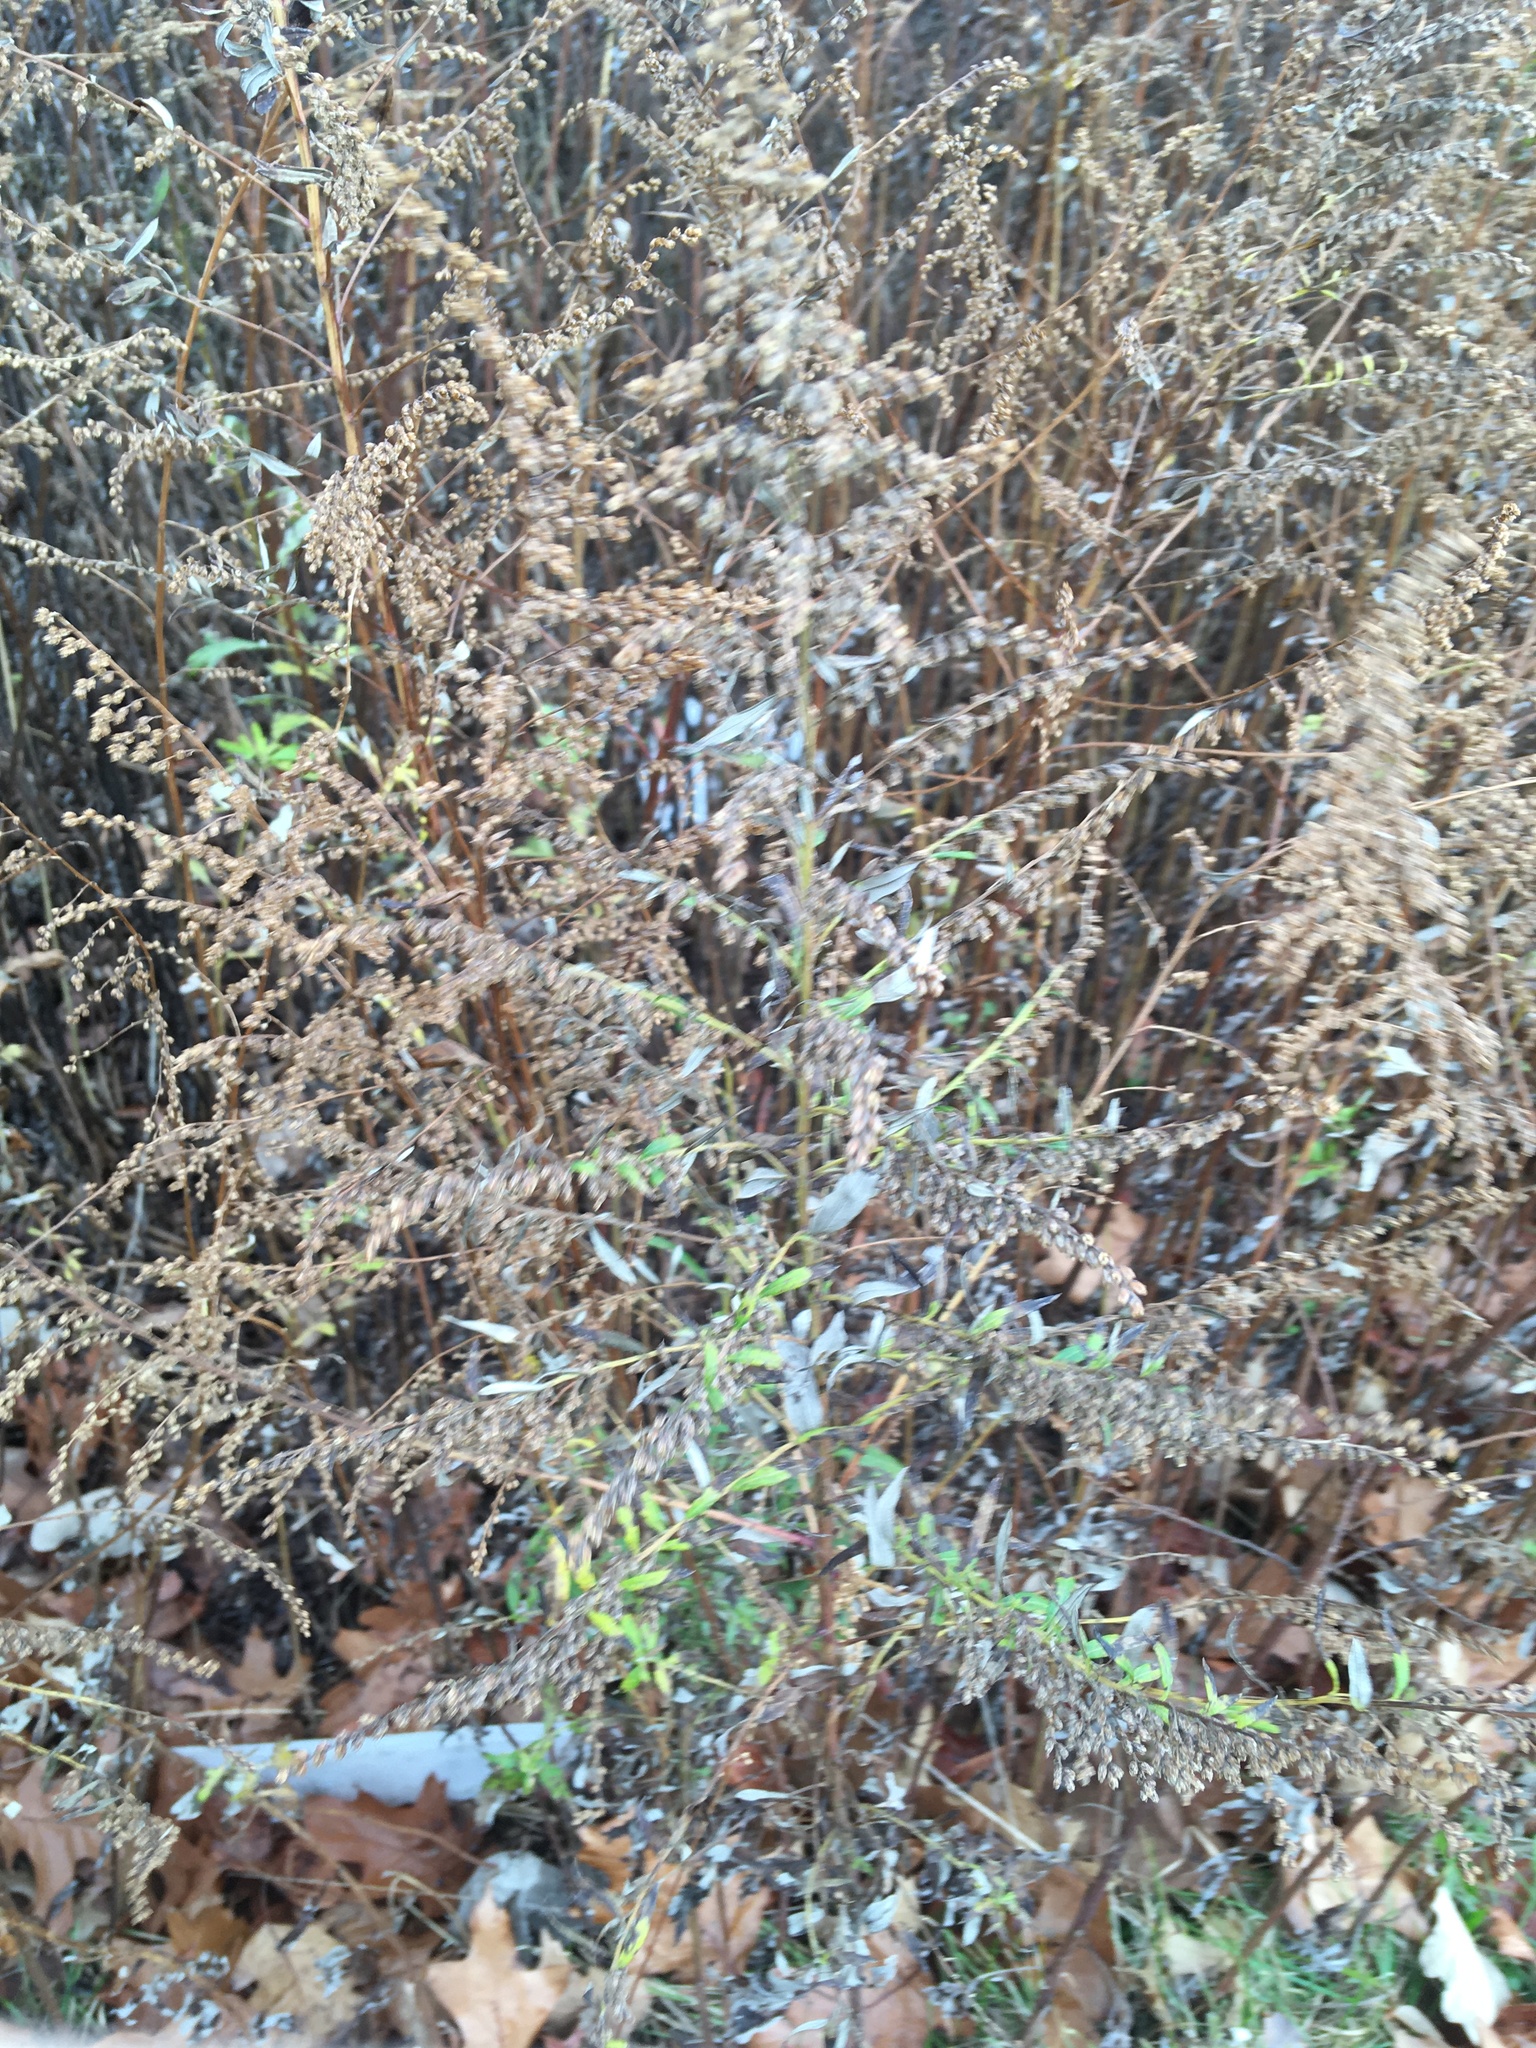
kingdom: Plantae
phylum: Tracheophyta
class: Magnoliopsida
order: Asterales
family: Asteraceae
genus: Artemisia
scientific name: Artemisia vulgaris
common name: Mugwort
